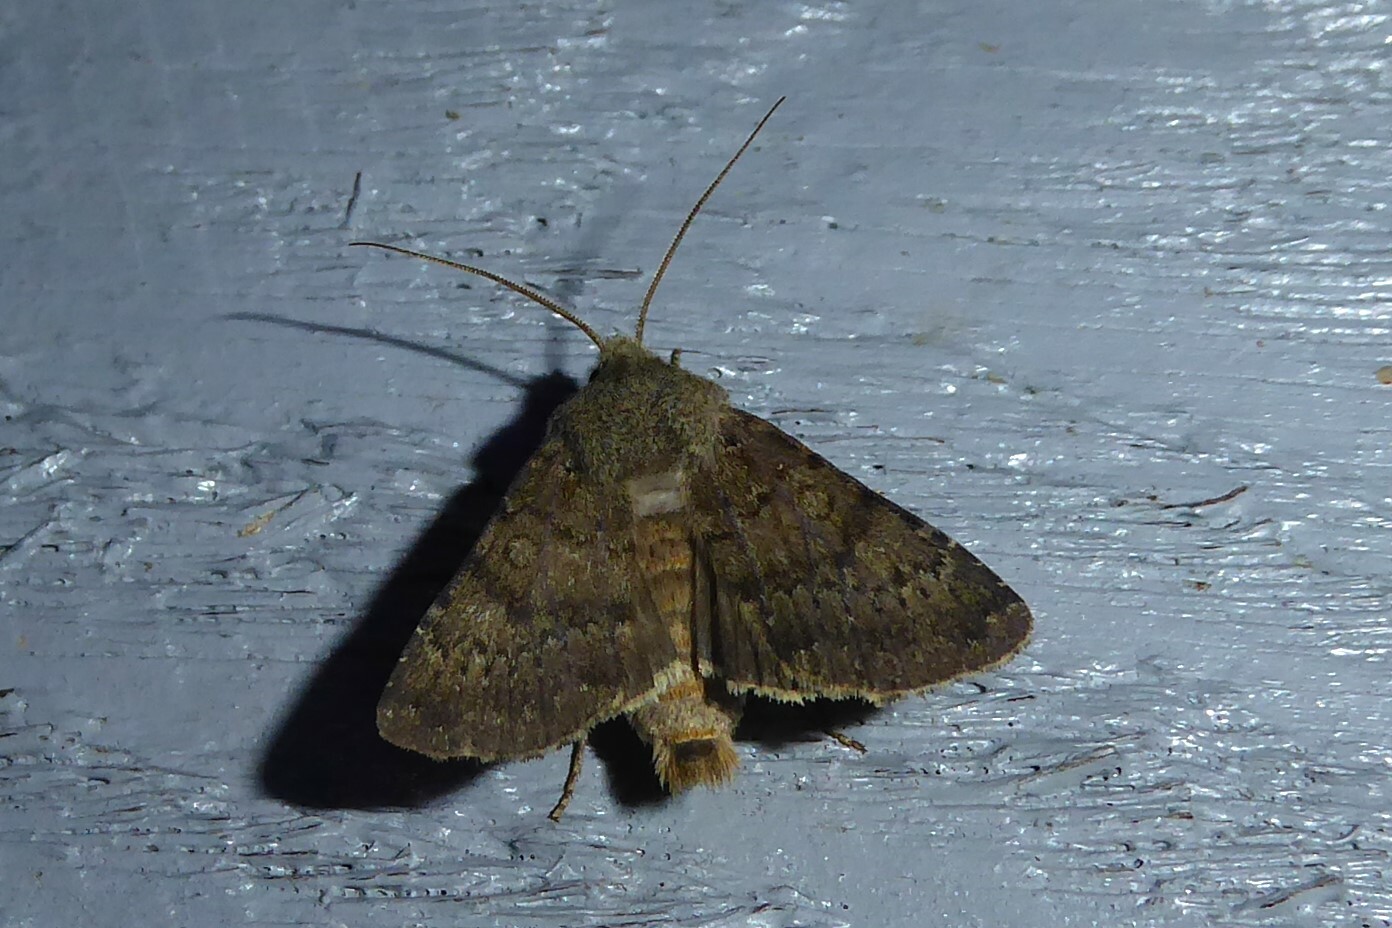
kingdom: Animalia
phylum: Arthropoda
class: Insecta
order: Lepidoptera
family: Noctuidae
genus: Ichneutica
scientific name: Ichneutica moderata
